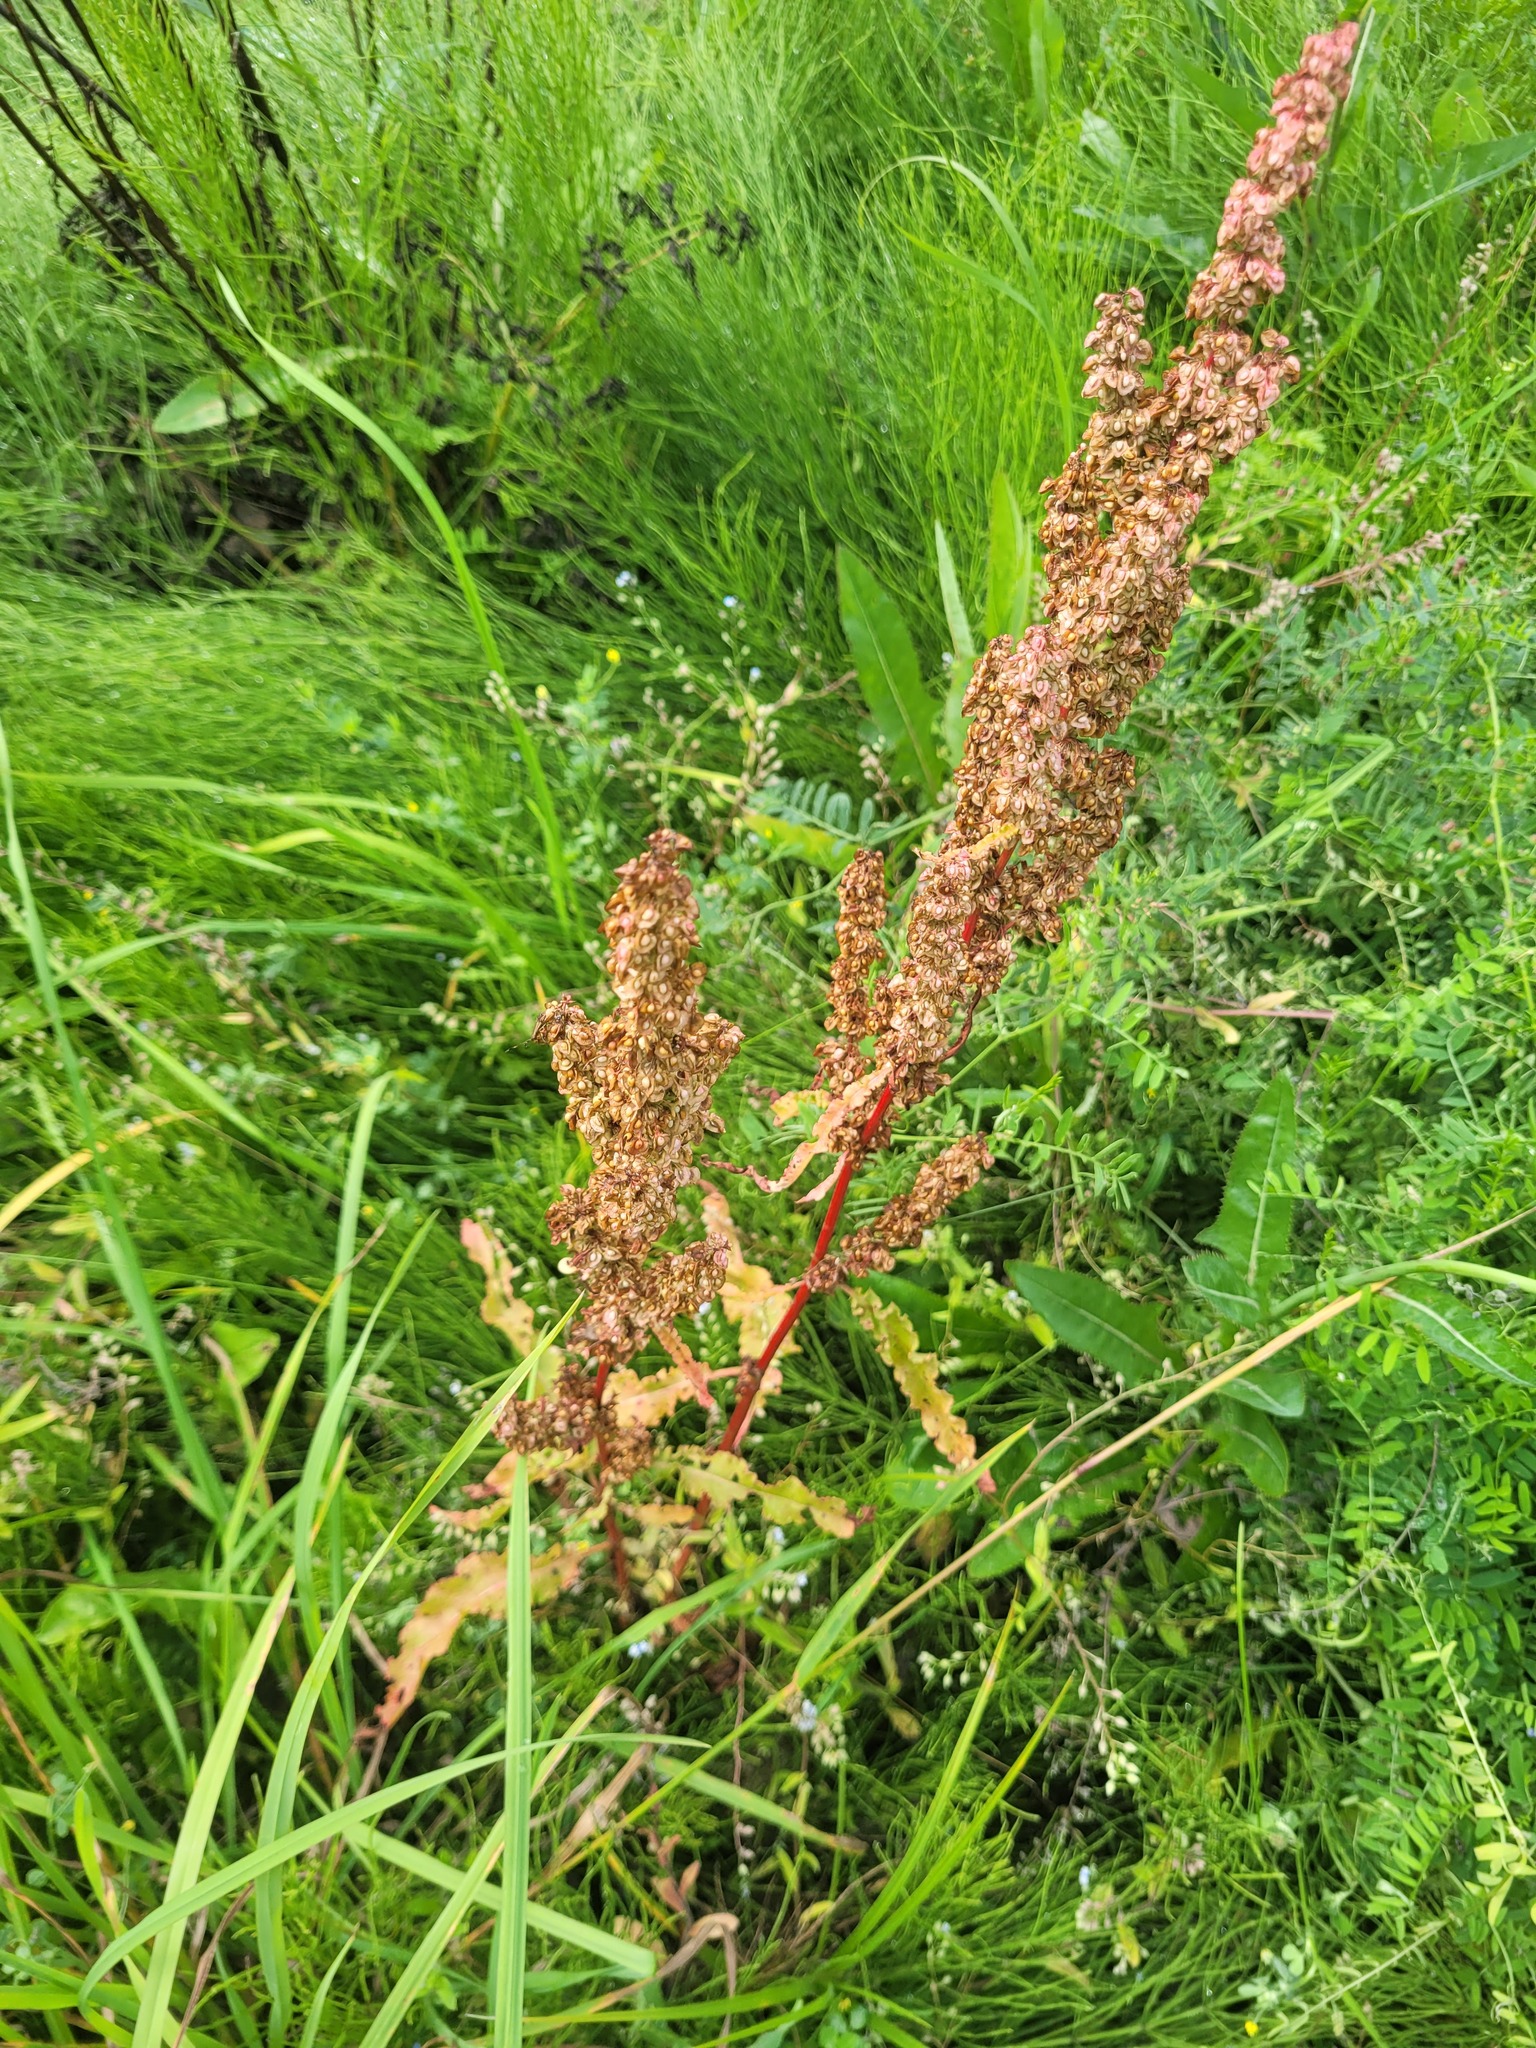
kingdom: Plantae
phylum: Tracheophyta
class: Magnoliopsida
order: Caryophyllales
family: Polygonaceae
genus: Rumex
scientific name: Rumex crispus
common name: Curled dock
